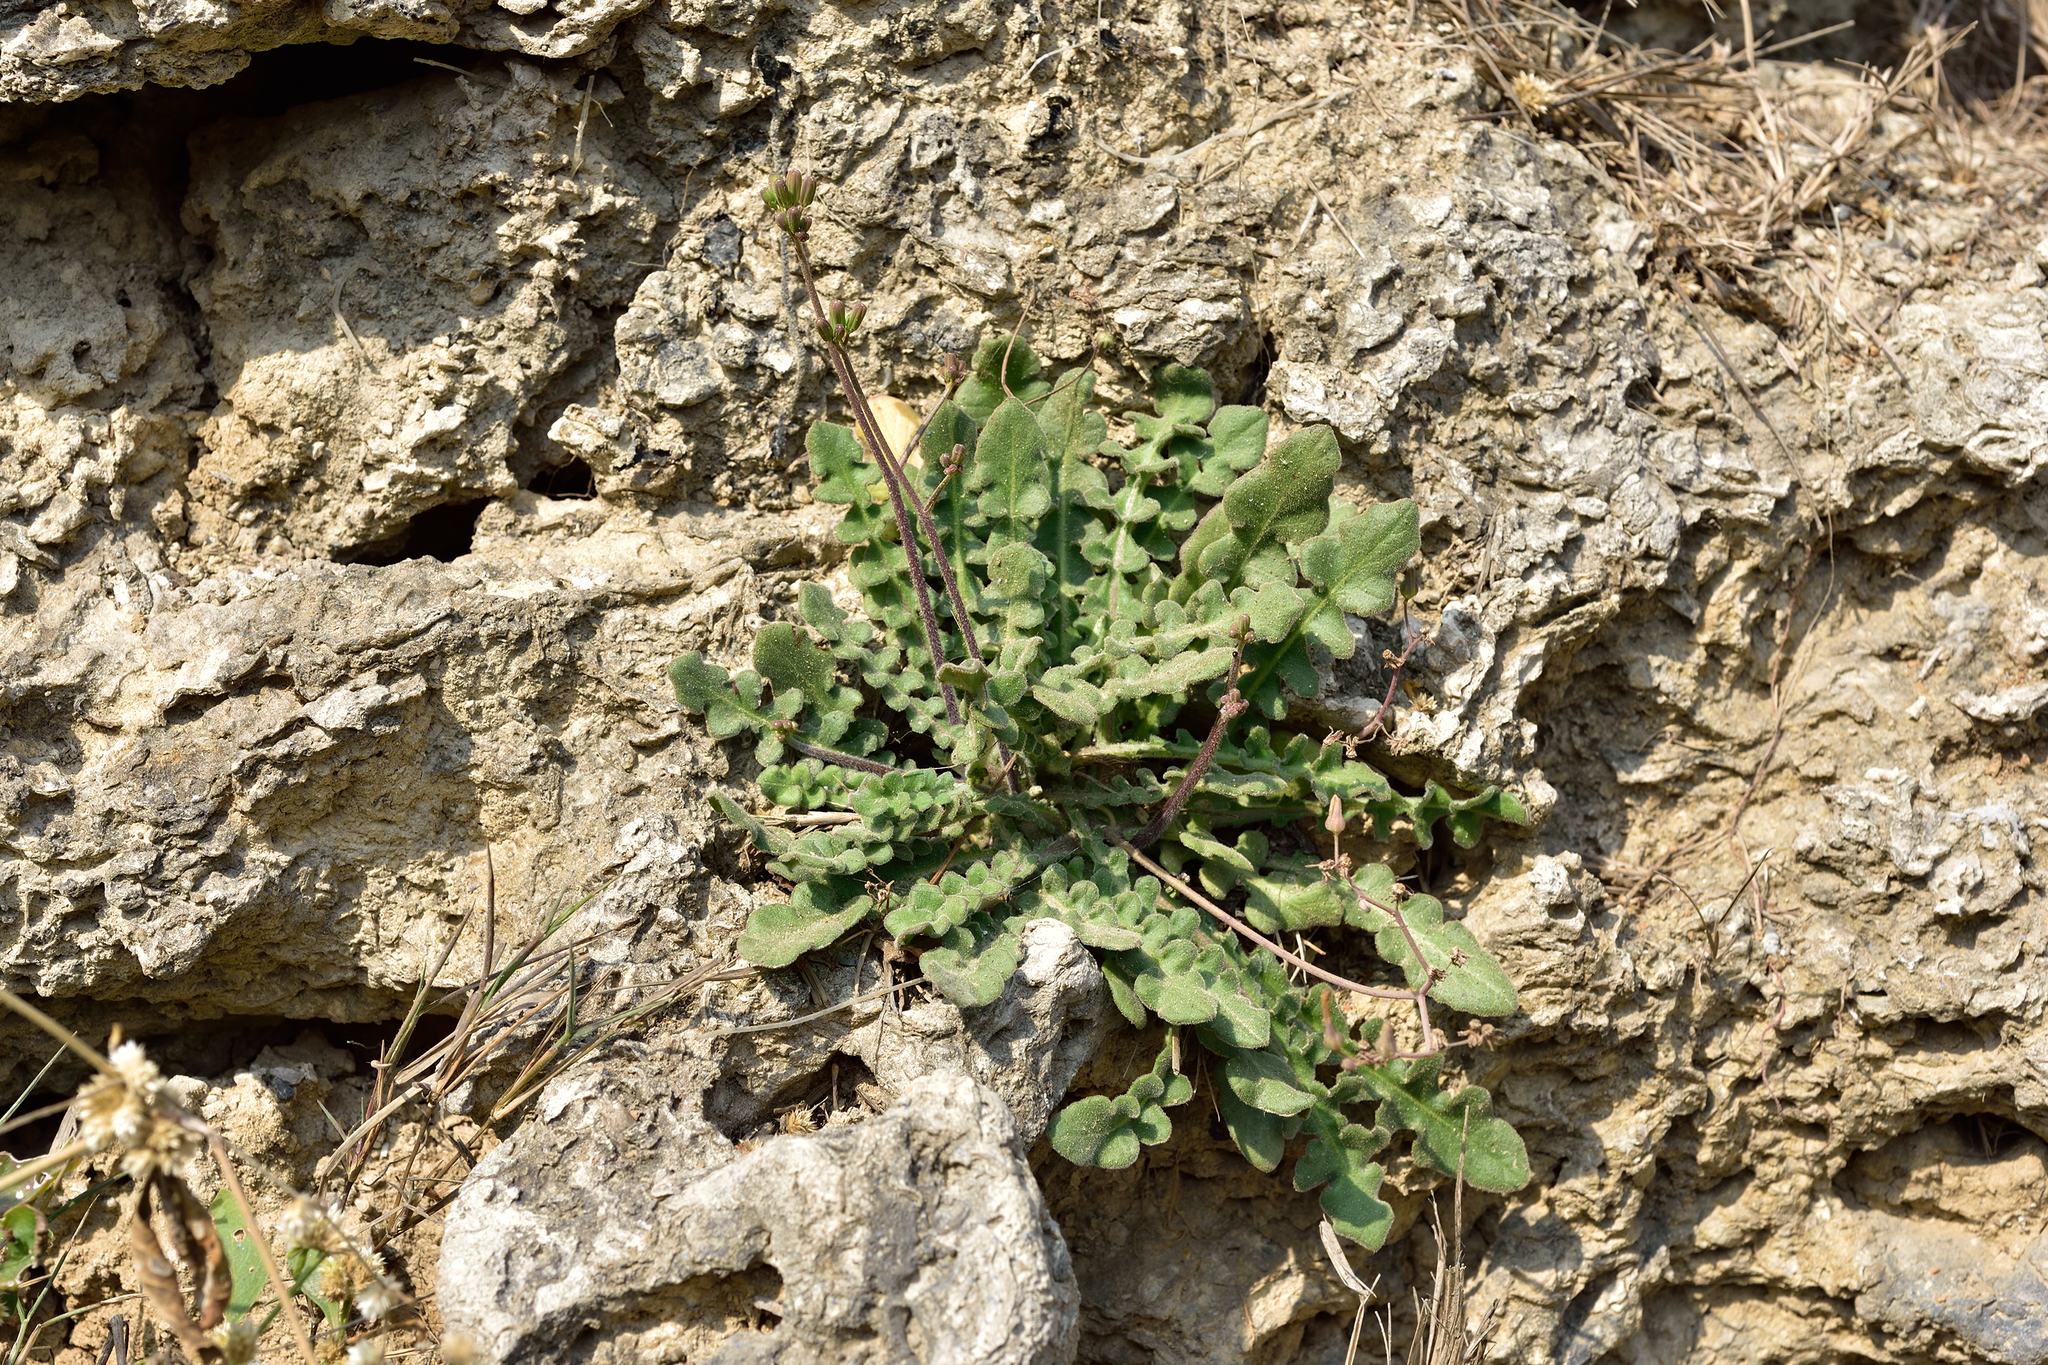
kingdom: Plantae
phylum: Tracheophyta
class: Magnoliopsida
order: Asterales
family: Asteraceae
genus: Youngia
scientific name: Youngia japonica
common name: Oriental false hawksbeard
